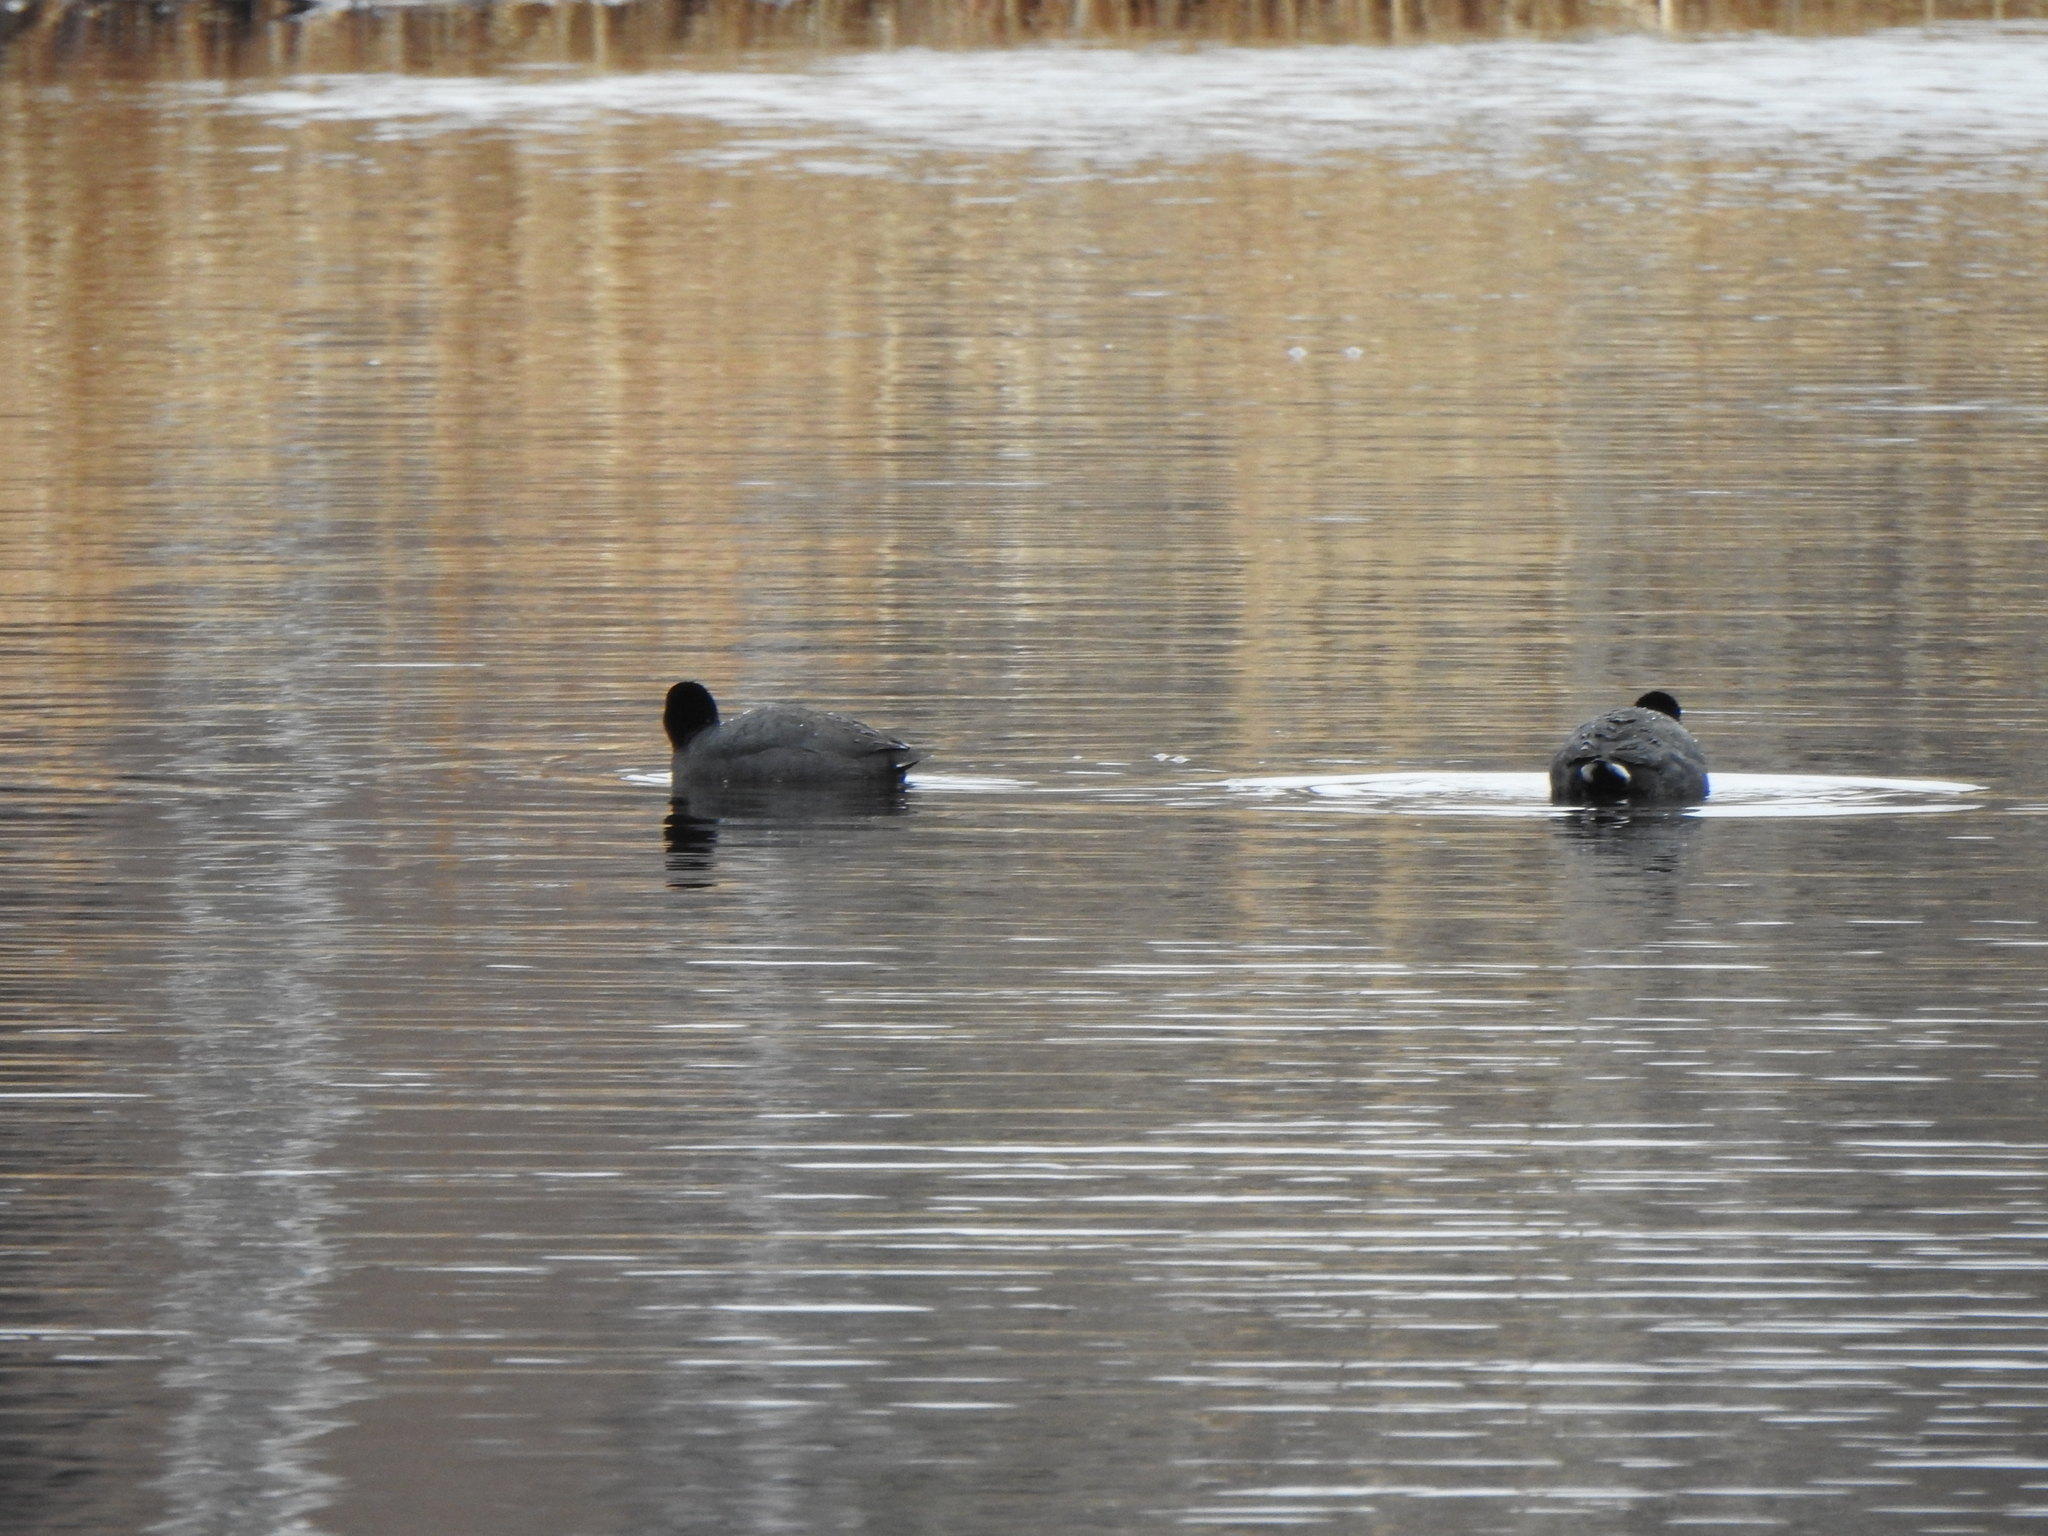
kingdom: Animalia
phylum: Chordata
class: Aves
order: Gruiformes
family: Rallidae
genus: Fulica
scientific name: Fulica americana
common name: American coot
